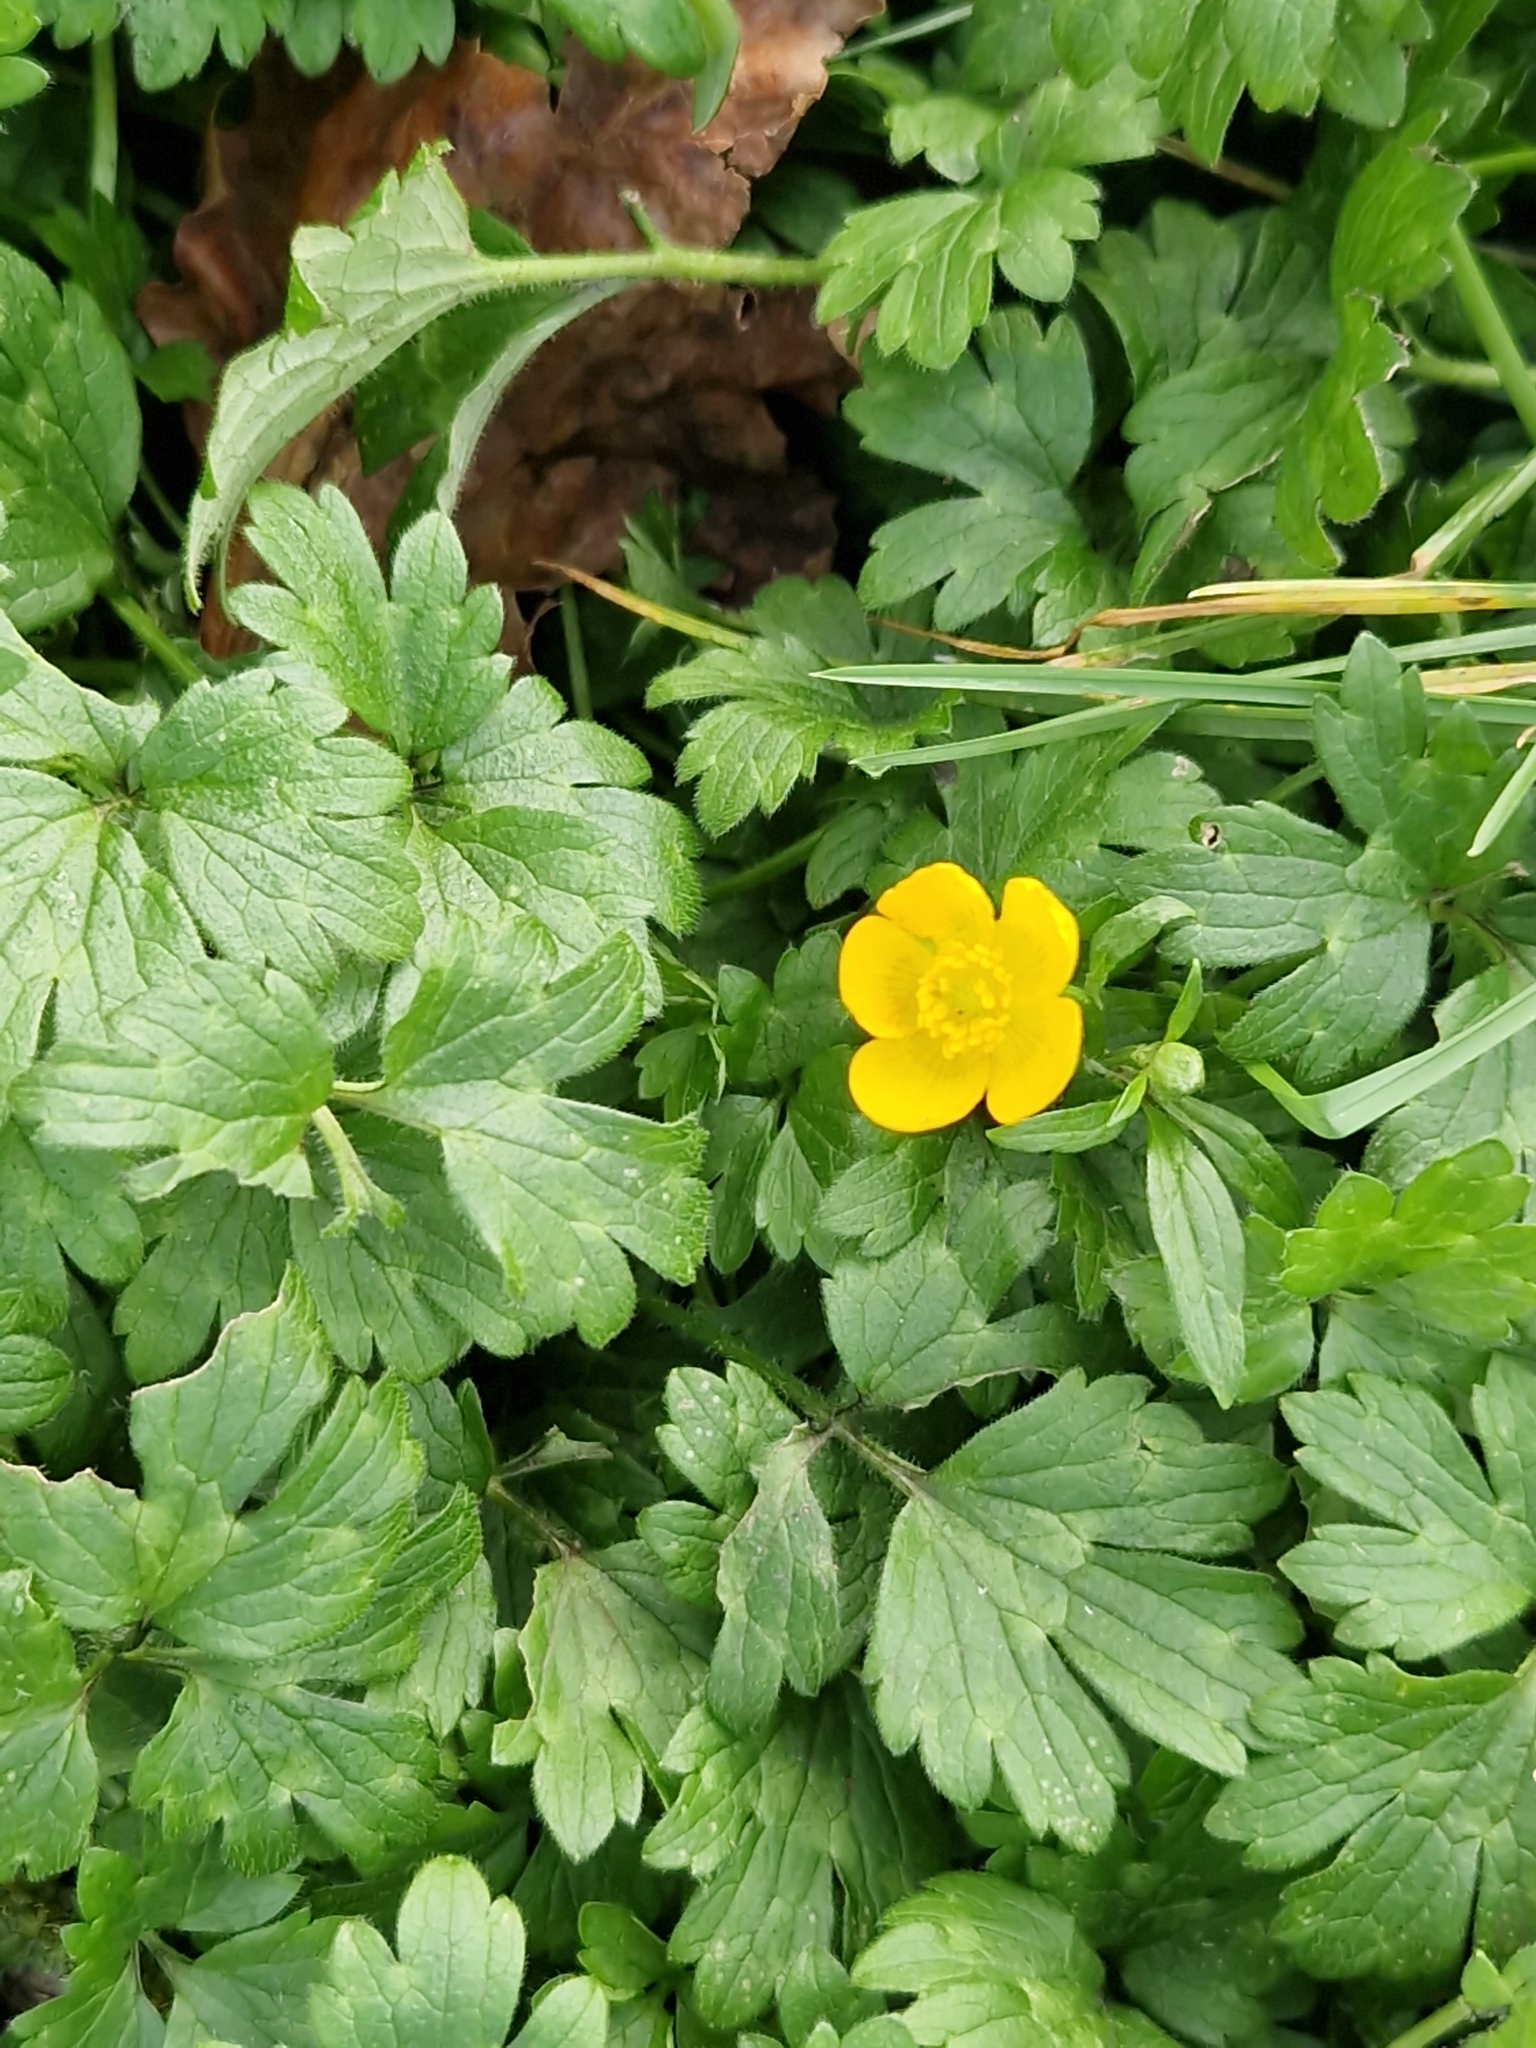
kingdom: Plantae
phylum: Tracheophyta
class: Magnoliopsida
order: Ranunculales
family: Ranunculaceae
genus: Ranunculus
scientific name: Ranunculus repens
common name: Creeping buttercup
